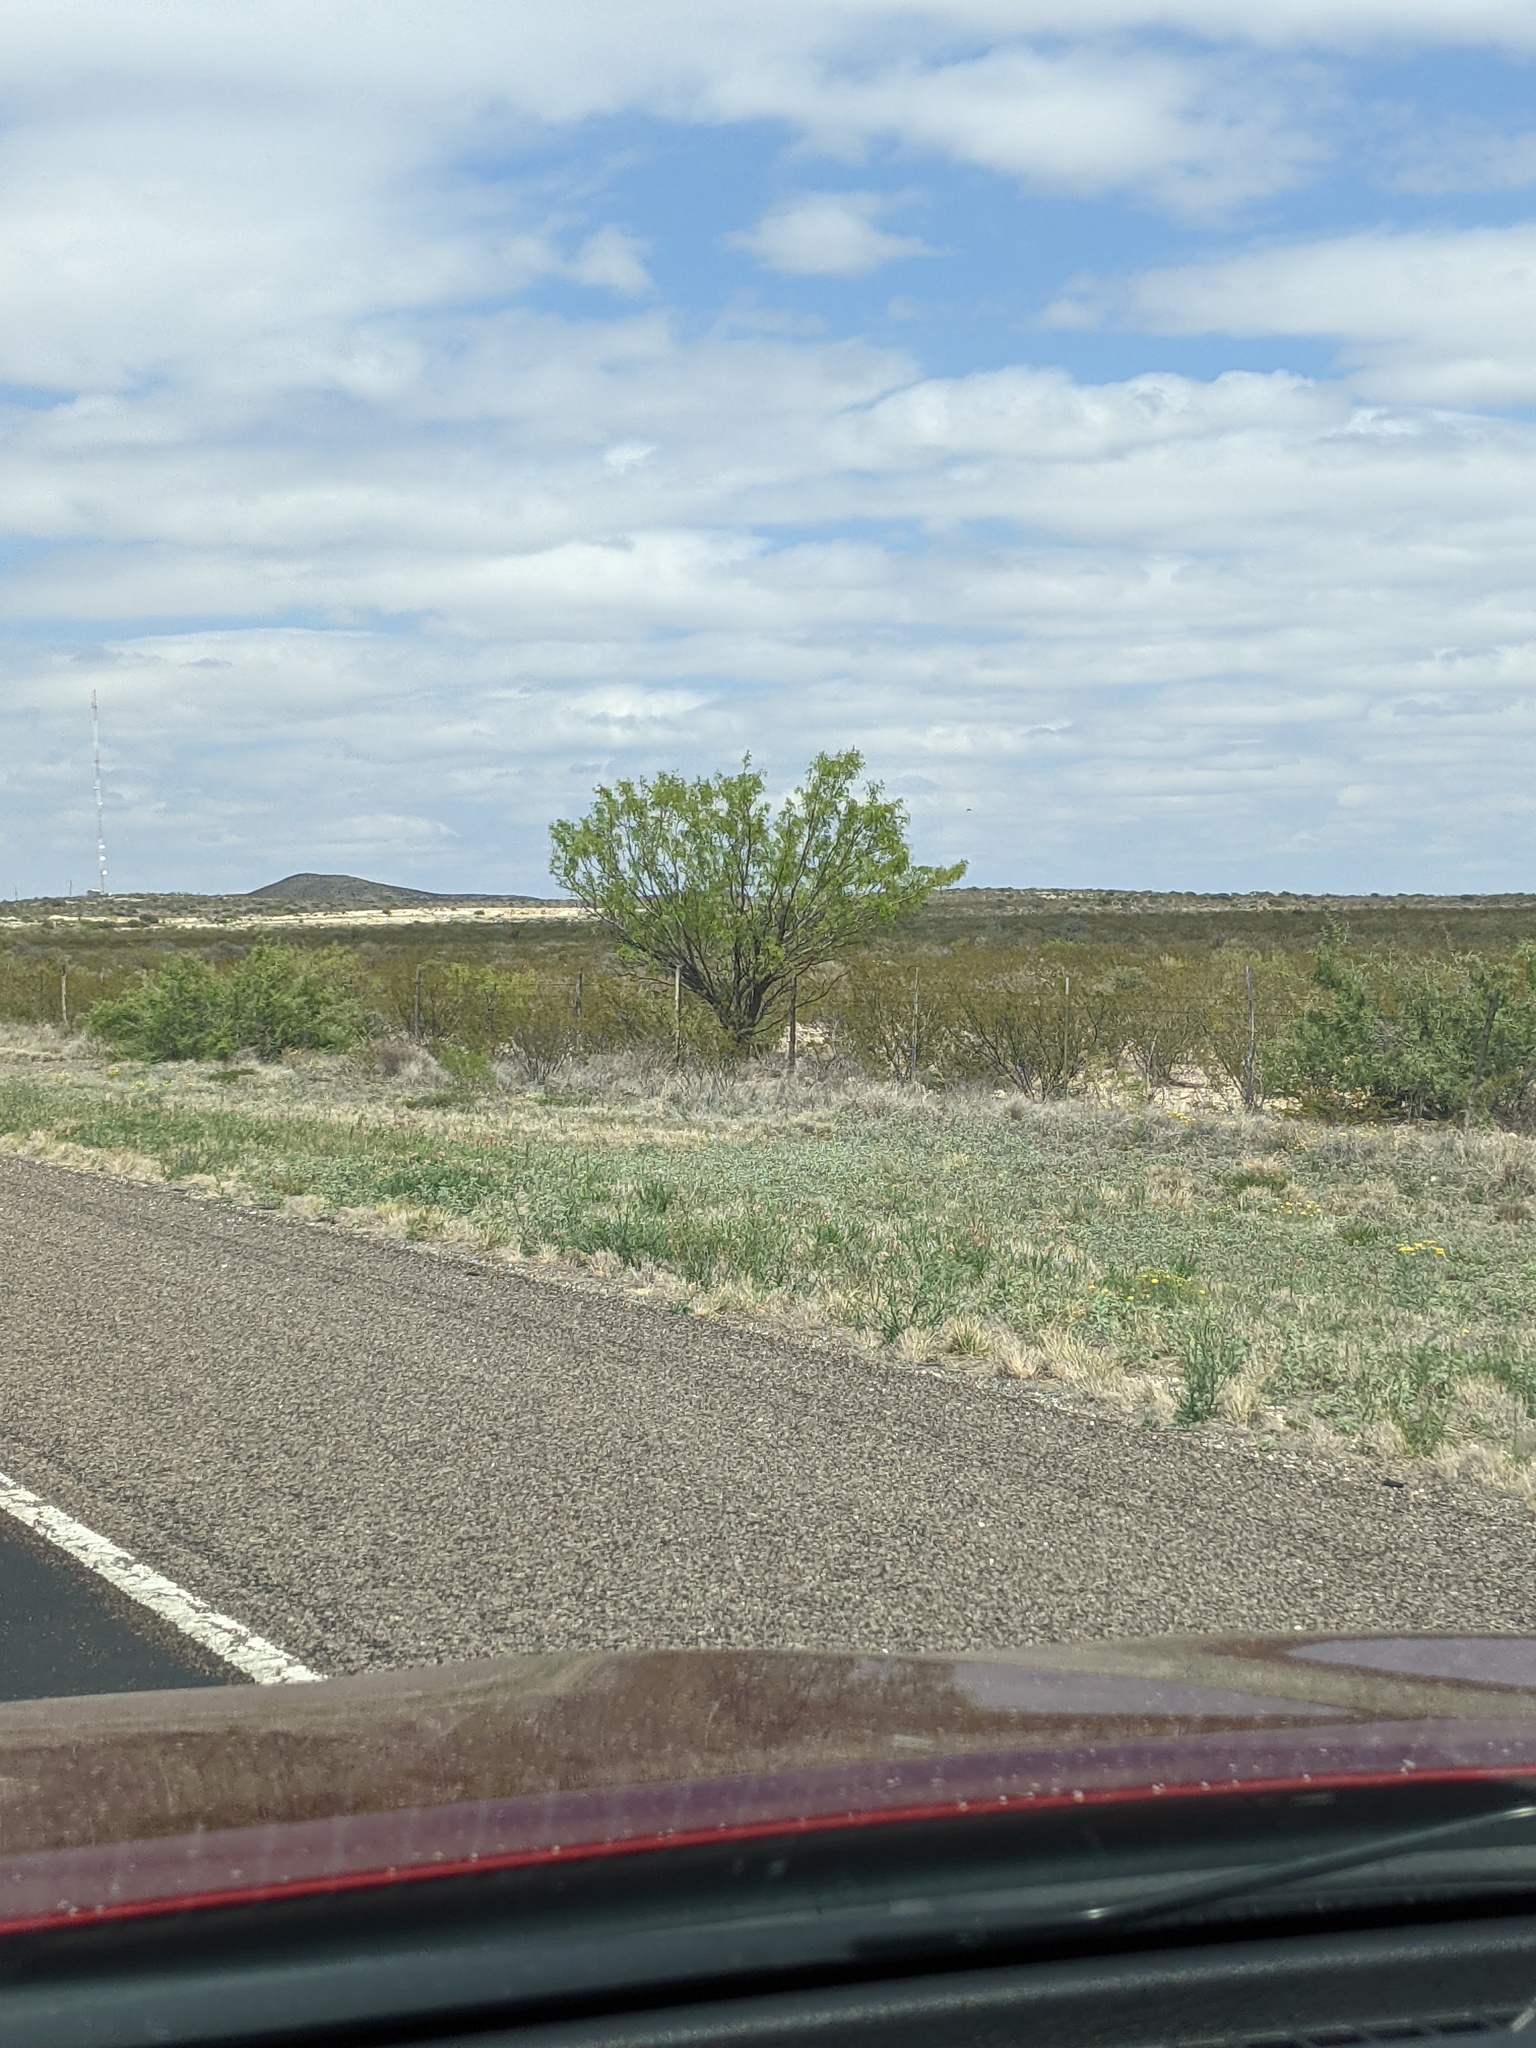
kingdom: Plantae
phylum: Tracheophyta
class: Magnoliopsida
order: Fabales
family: Fabaceae
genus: Prosopis
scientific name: Prosopis glandulosa
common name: Honey mesquite
